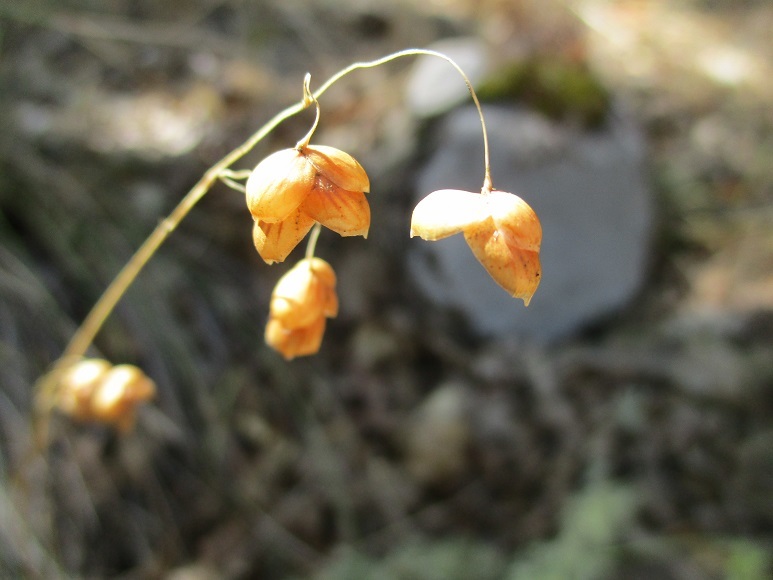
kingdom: Plantae
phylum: Tracheophyta
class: Liliopsida
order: Poales
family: Poaceae
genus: Briza
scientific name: Briza maxima
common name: Big quakinggrass
